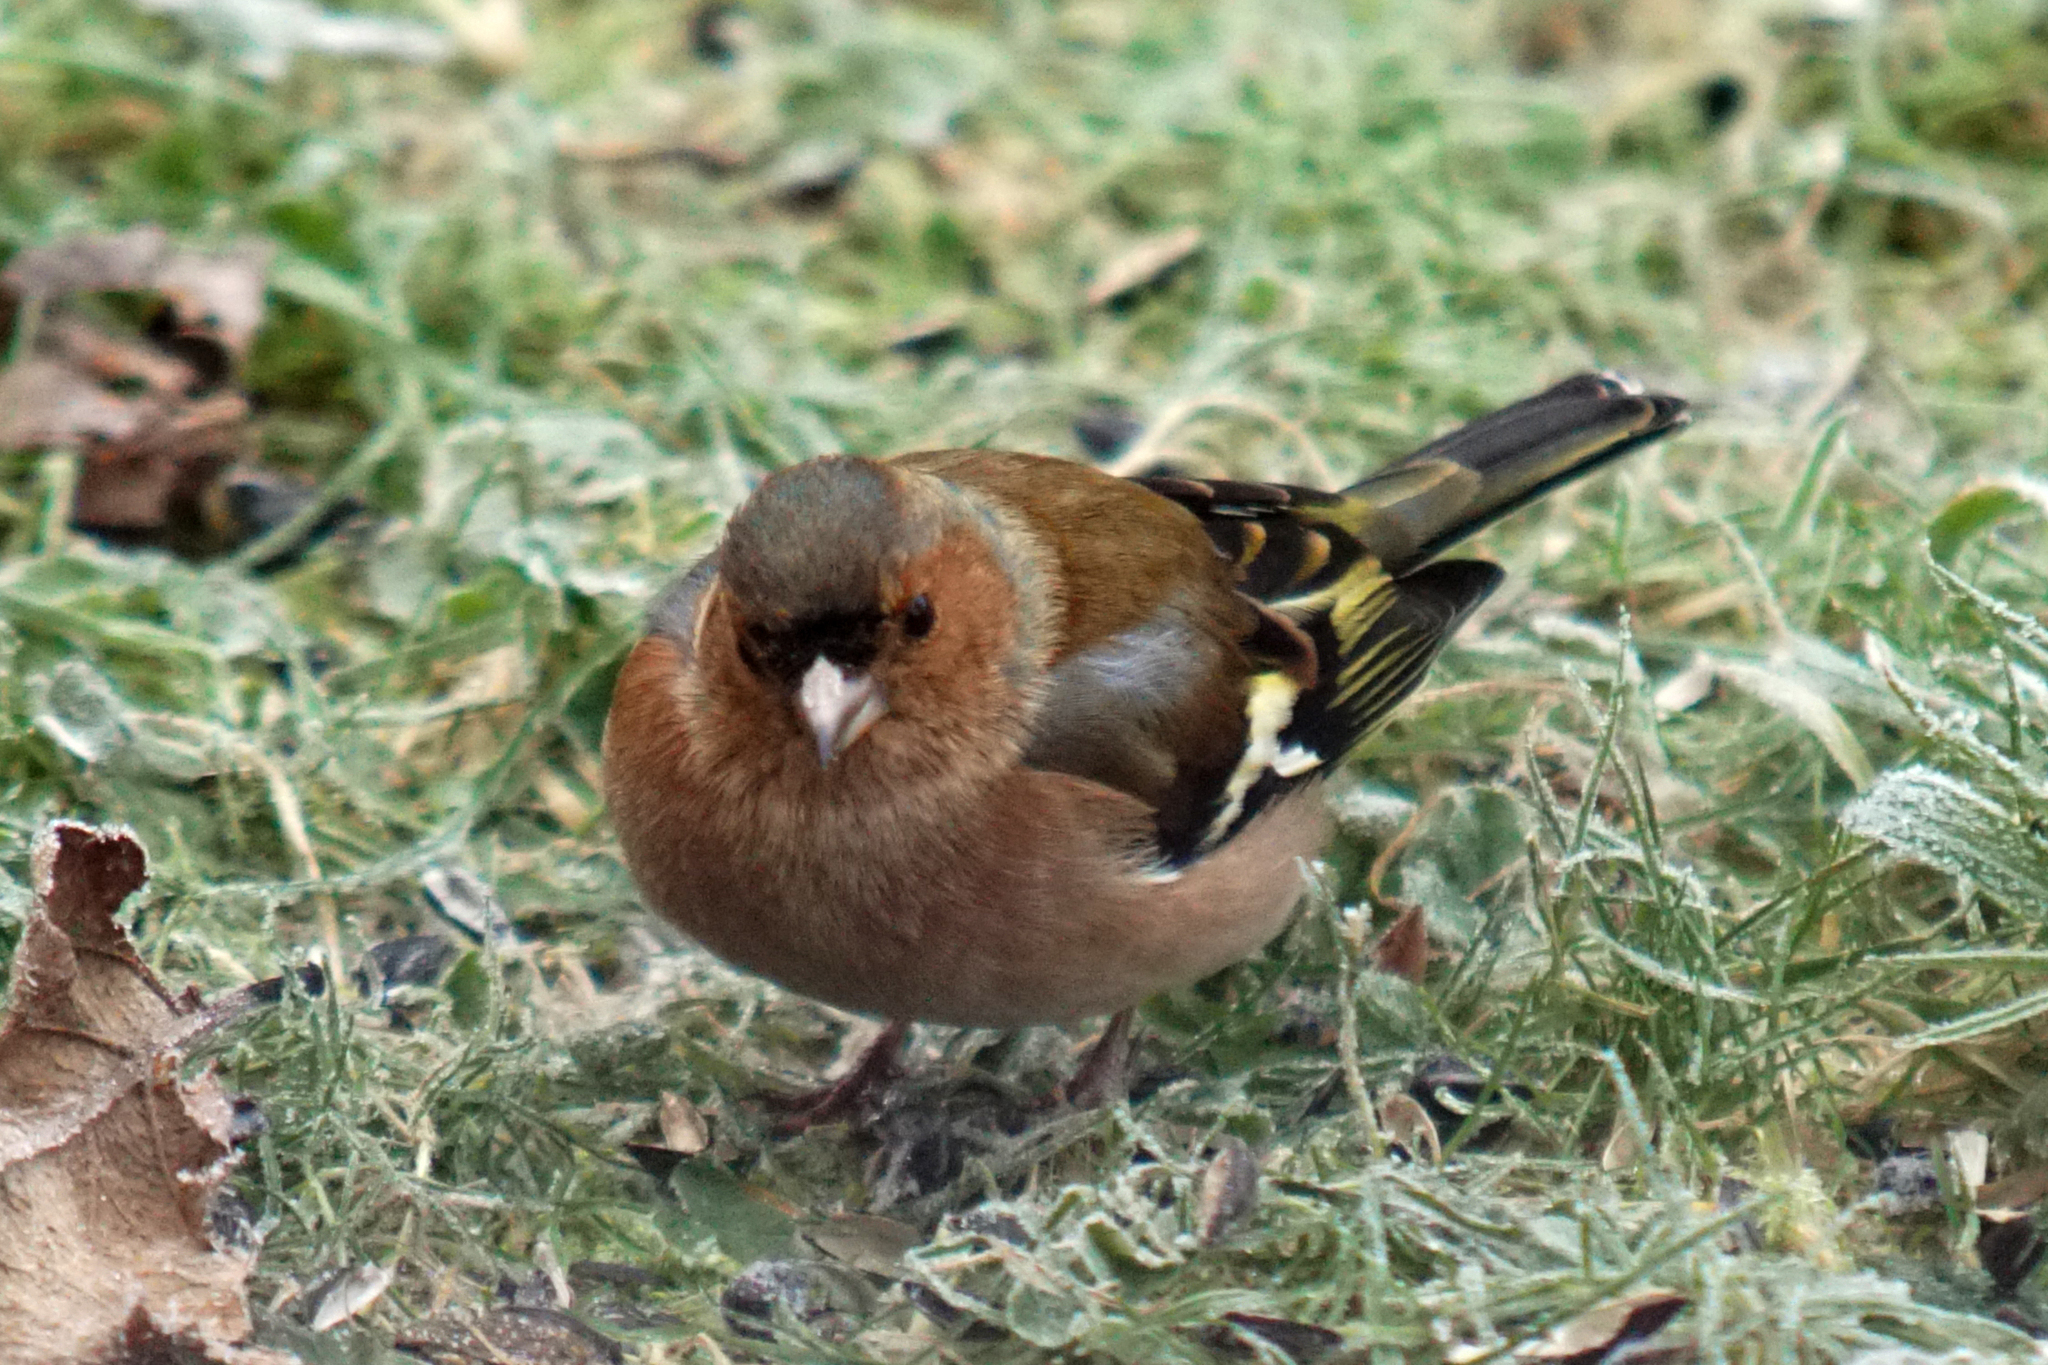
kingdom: Animalia
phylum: Chordata
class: Aves
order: Passeriformes
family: Fringillidae
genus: Fringilla
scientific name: Fringilla coelebs
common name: Common chaffinch
